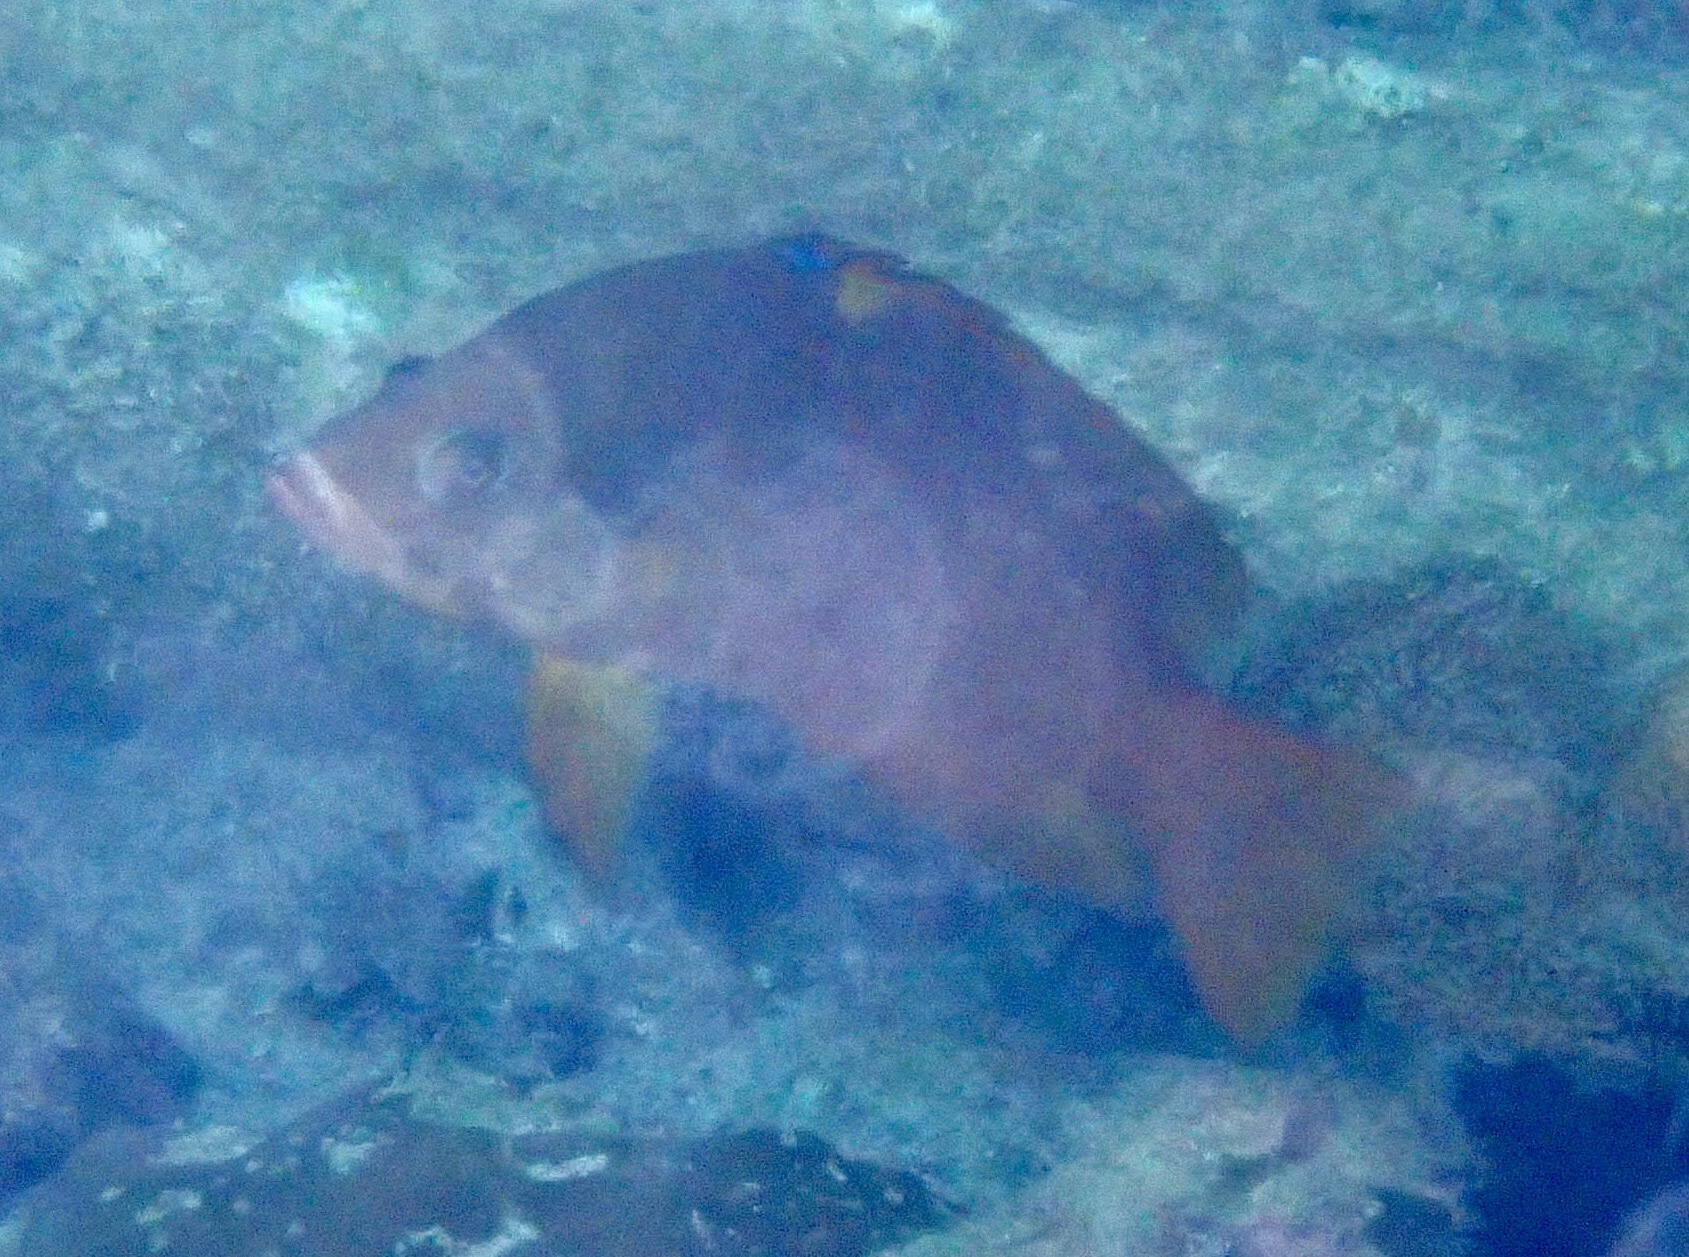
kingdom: Animalia
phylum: Chordata
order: Perciformes
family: Labridae
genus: Epibulus
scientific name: Epibulus insidiator
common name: Slingjaw wrasse
